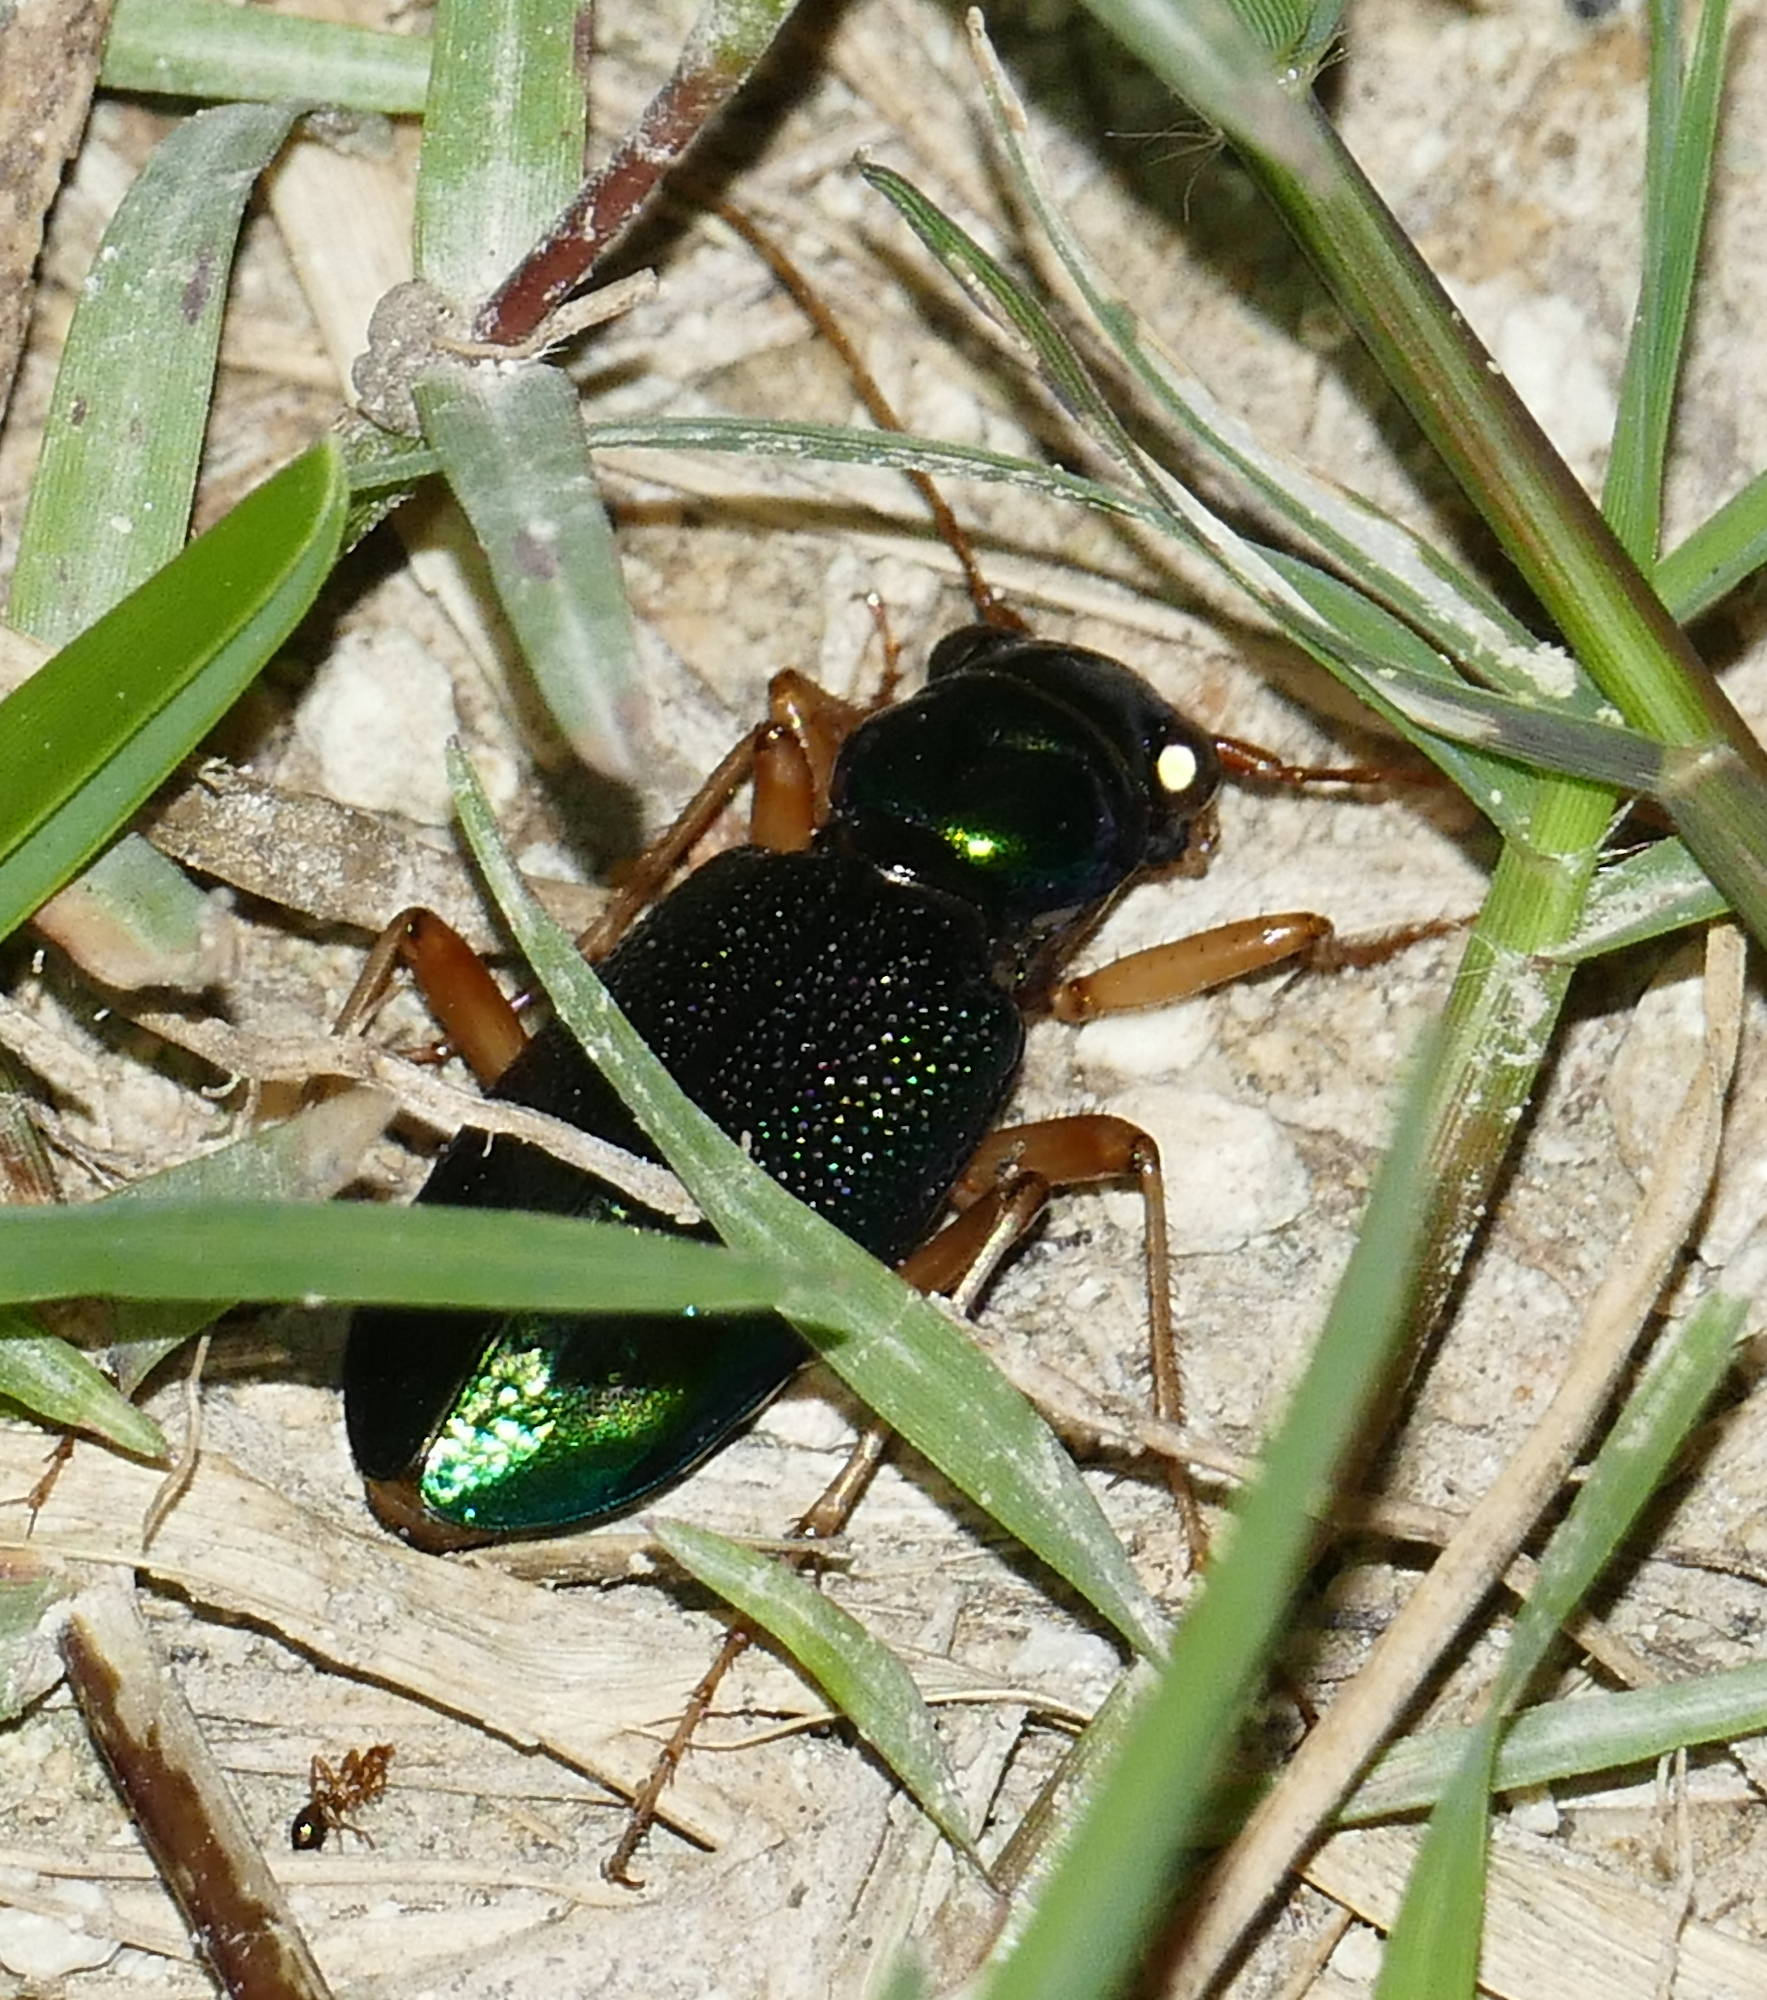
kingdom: Animalia
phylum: Arthropoda
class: Insecta
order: Coleoptera
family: Carabidae
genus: Tetracha
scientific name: Tetracha virginica
